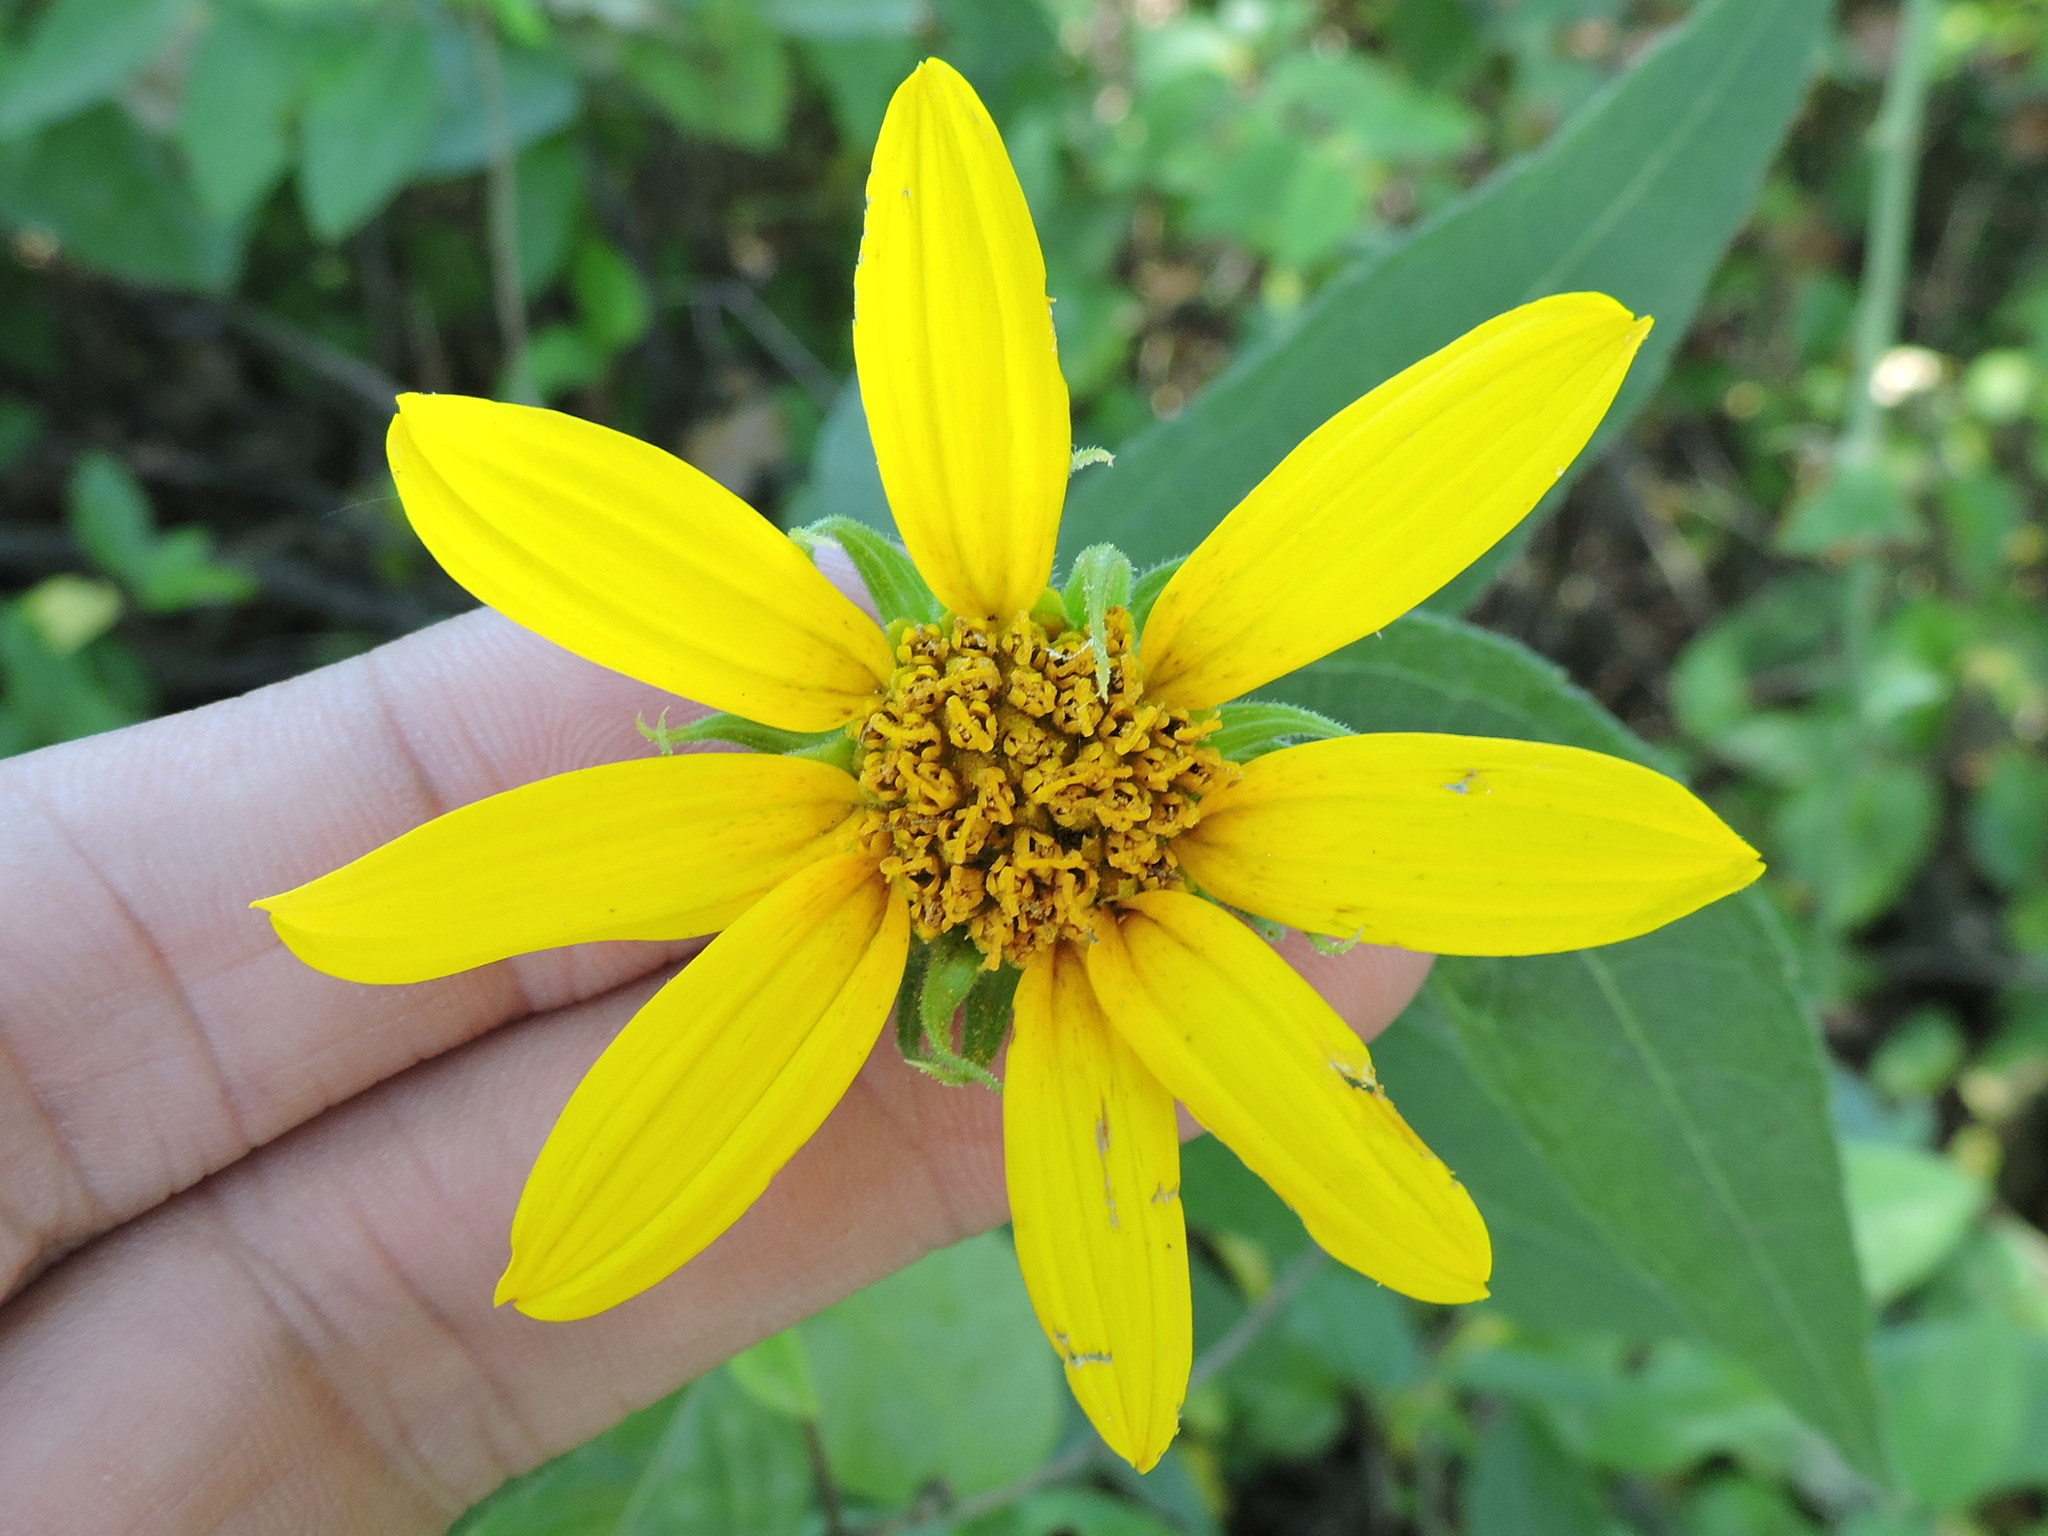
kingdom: Plantae
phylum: Tracheophyta
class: Magnoliopsida
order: Asterales
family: Asteraceae
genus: Helianthus
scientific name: Helianthus hirsutus
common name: Hairy sunflower
